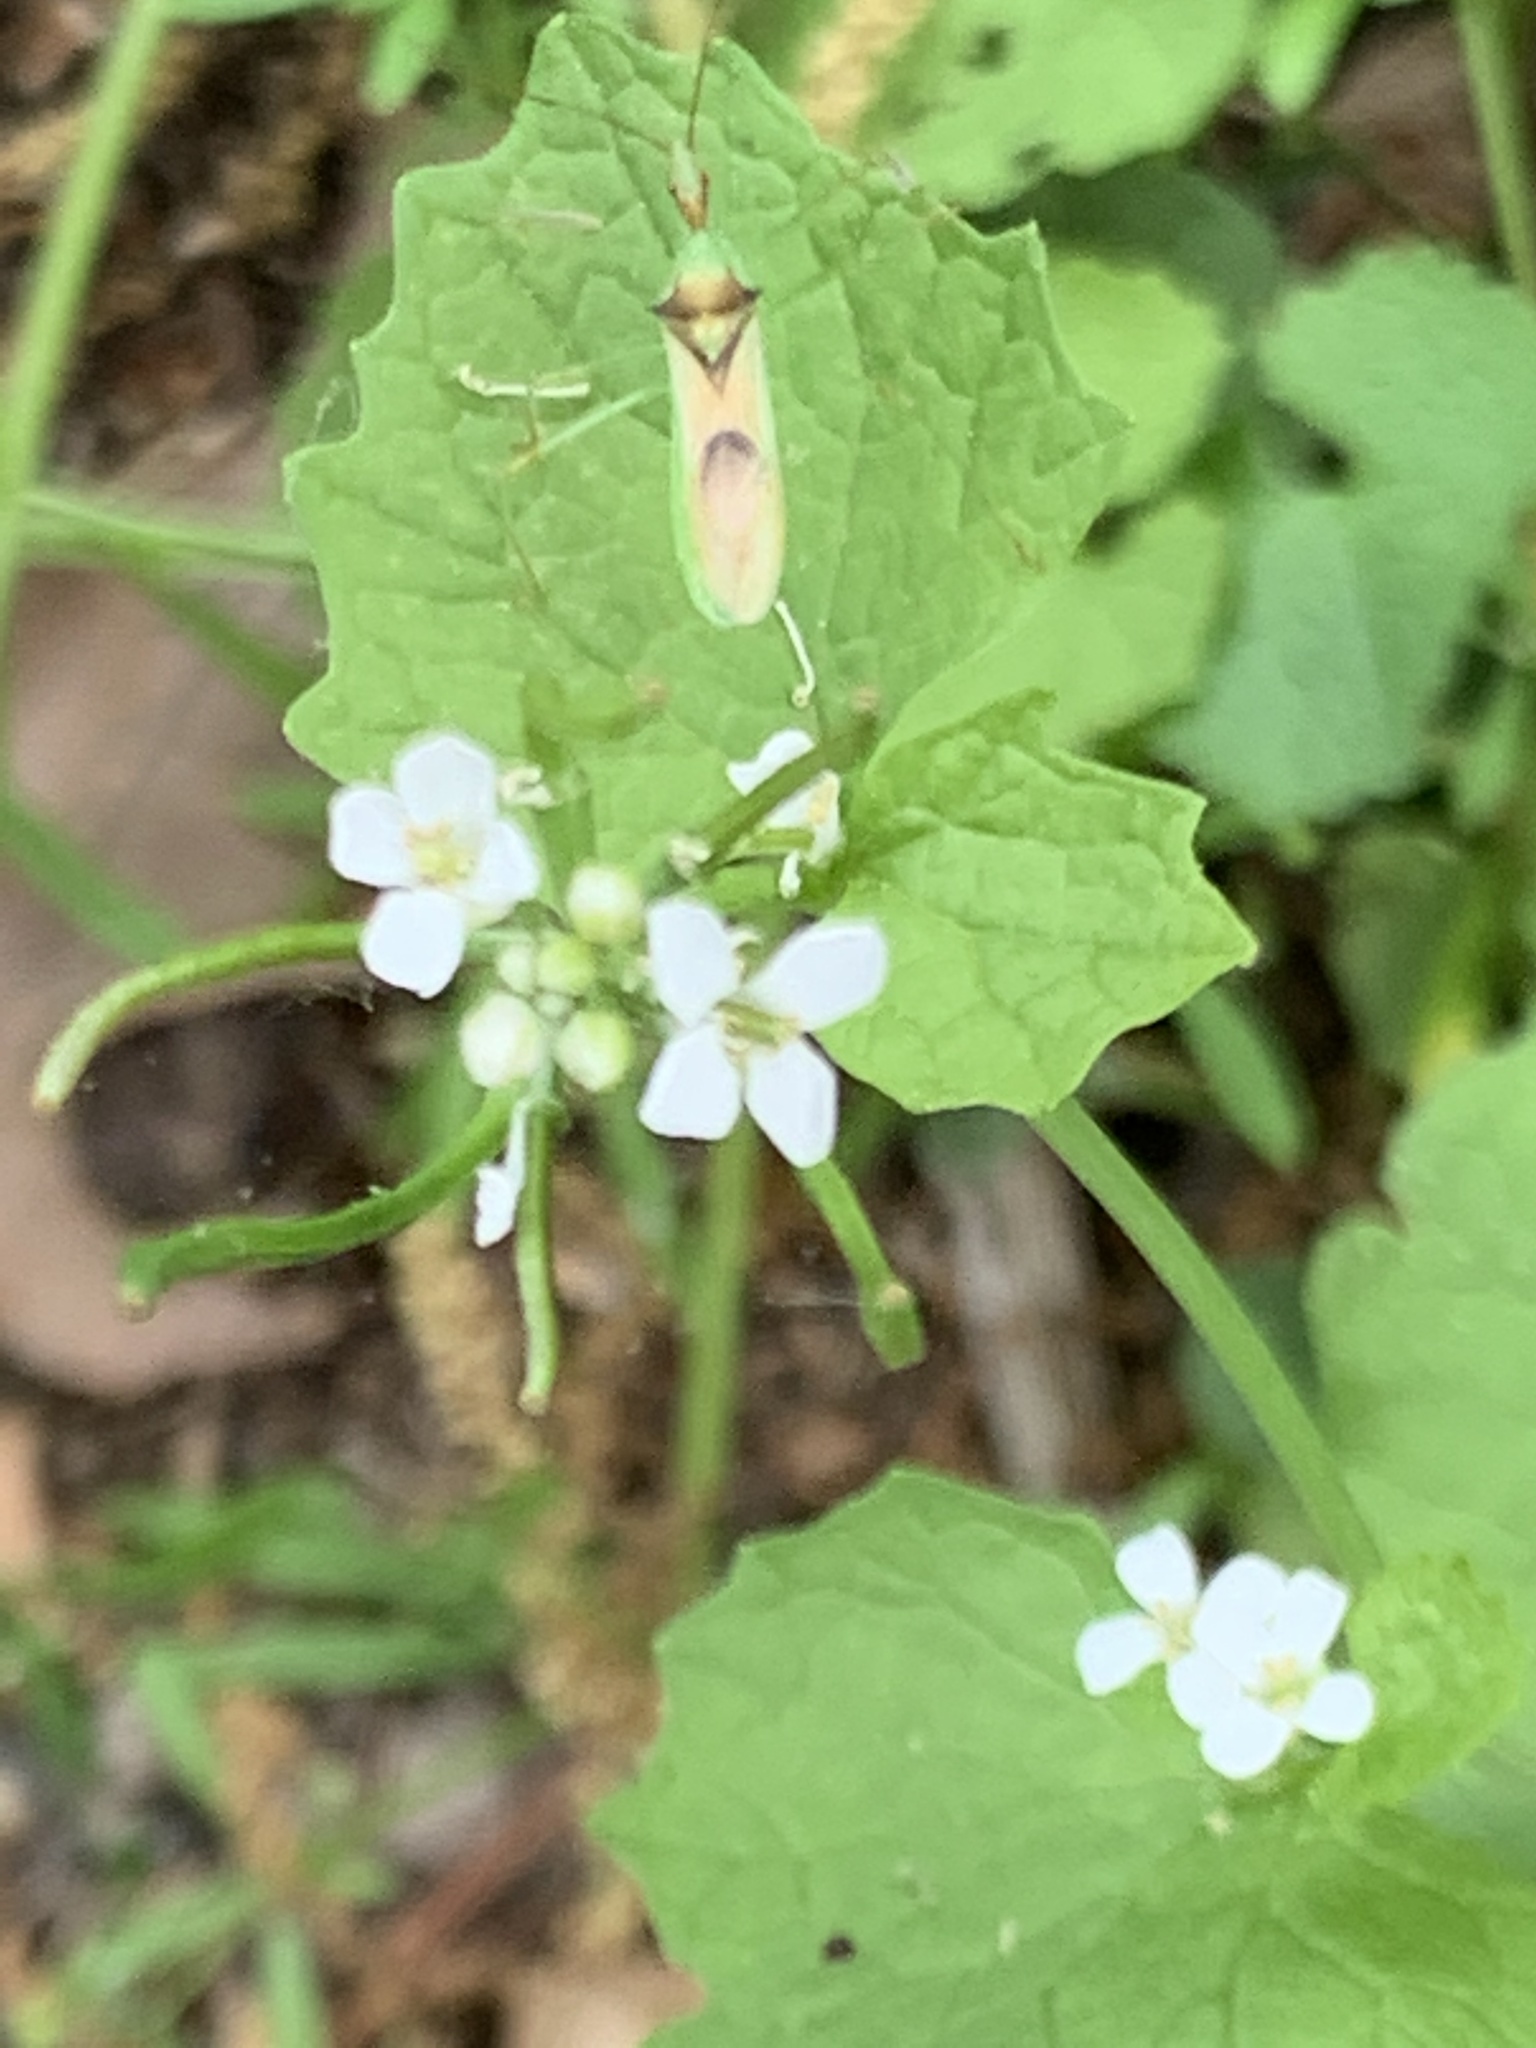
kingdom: Plantae
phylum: Tracheophyta
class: Magnoliopsida
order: Brassicales
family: Brassicaceae
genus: Alliaria
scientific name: Alliaria petiolata
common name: Garlic mustard
